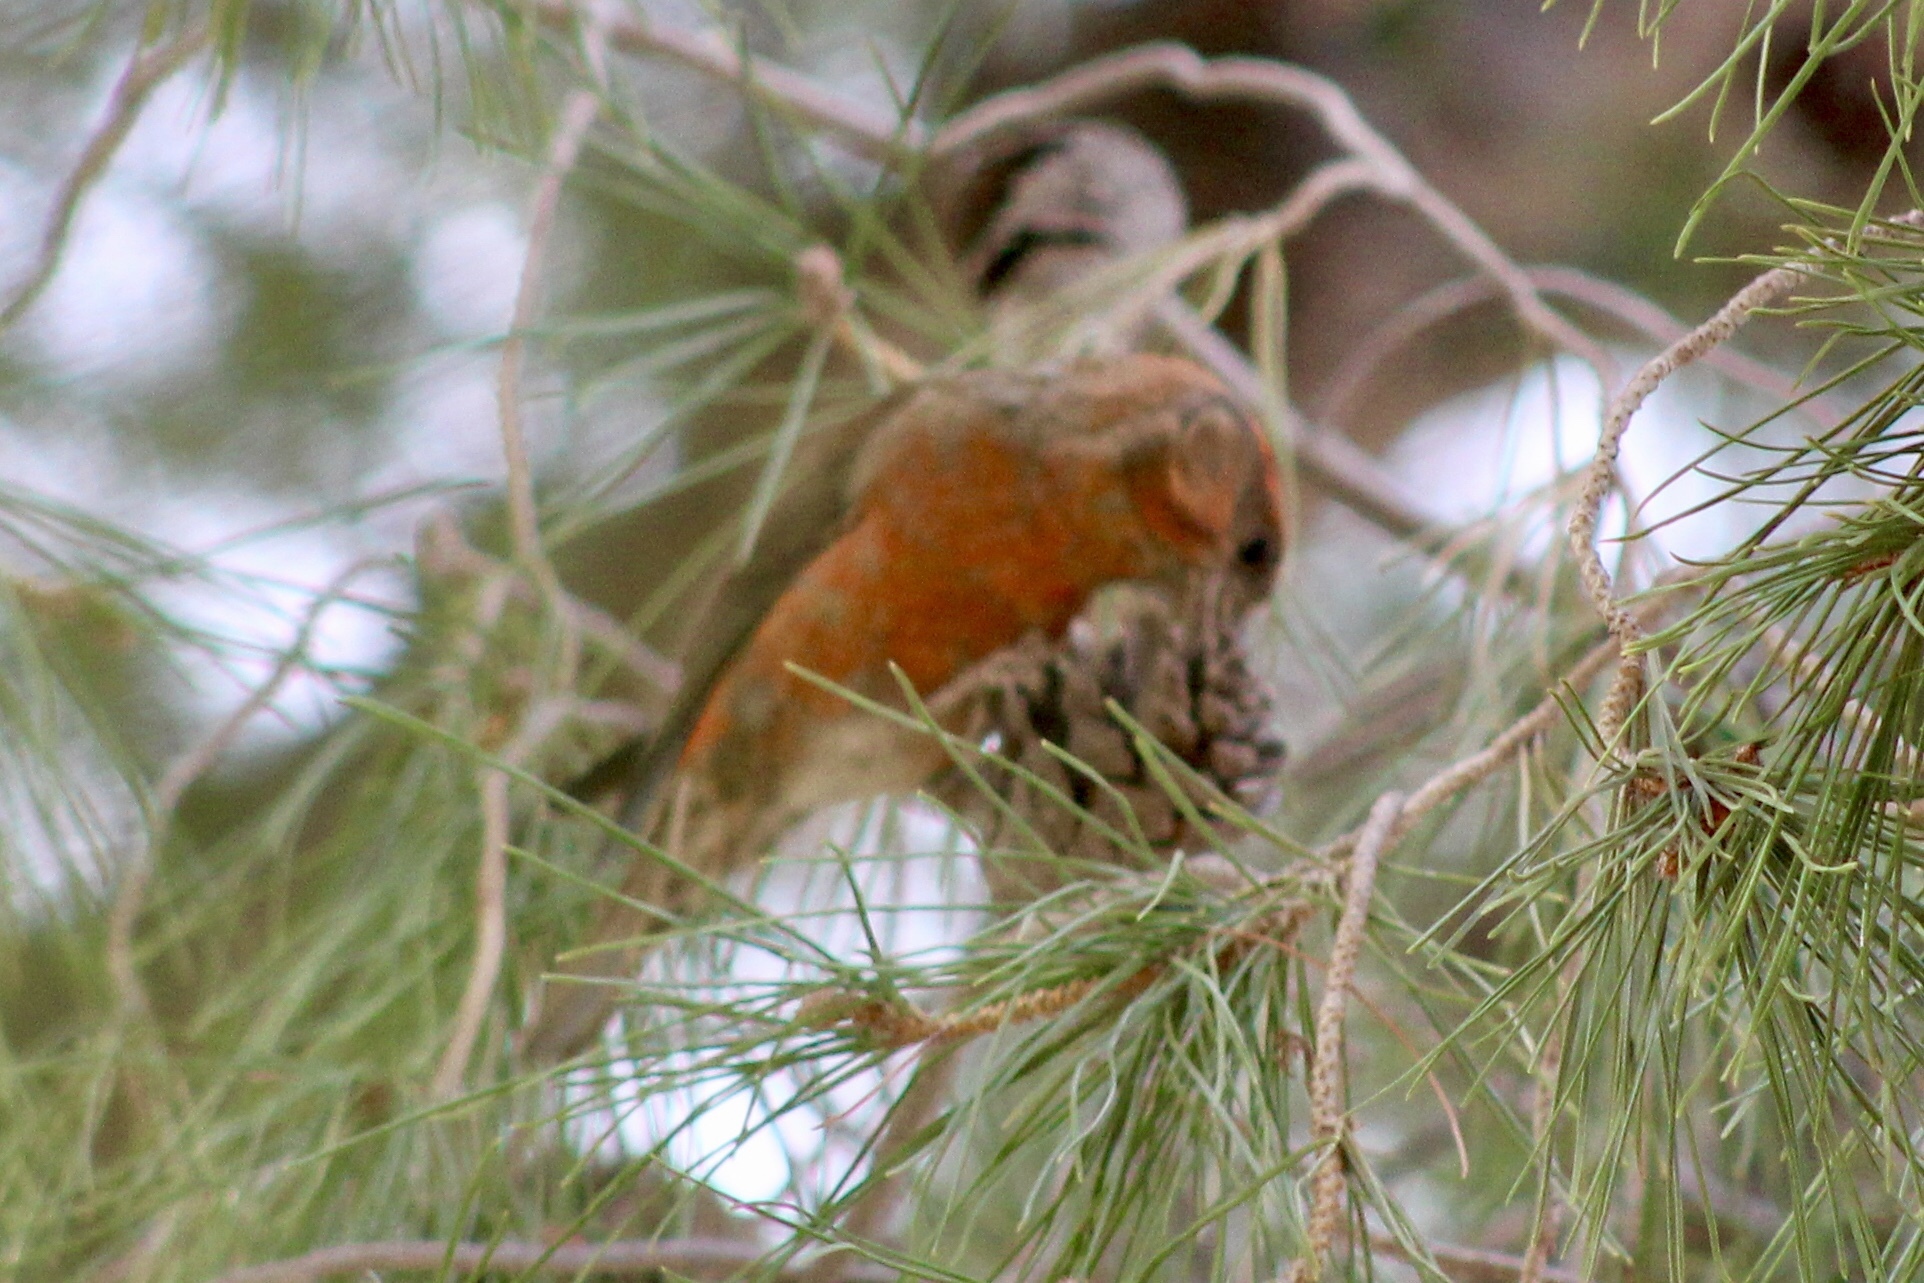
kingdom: Animalia
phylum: Chordata
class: Aves
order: Passeriformes
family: Fringillidae
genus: Loxia
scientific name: Loxia curvirostra
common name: Red crossbill
